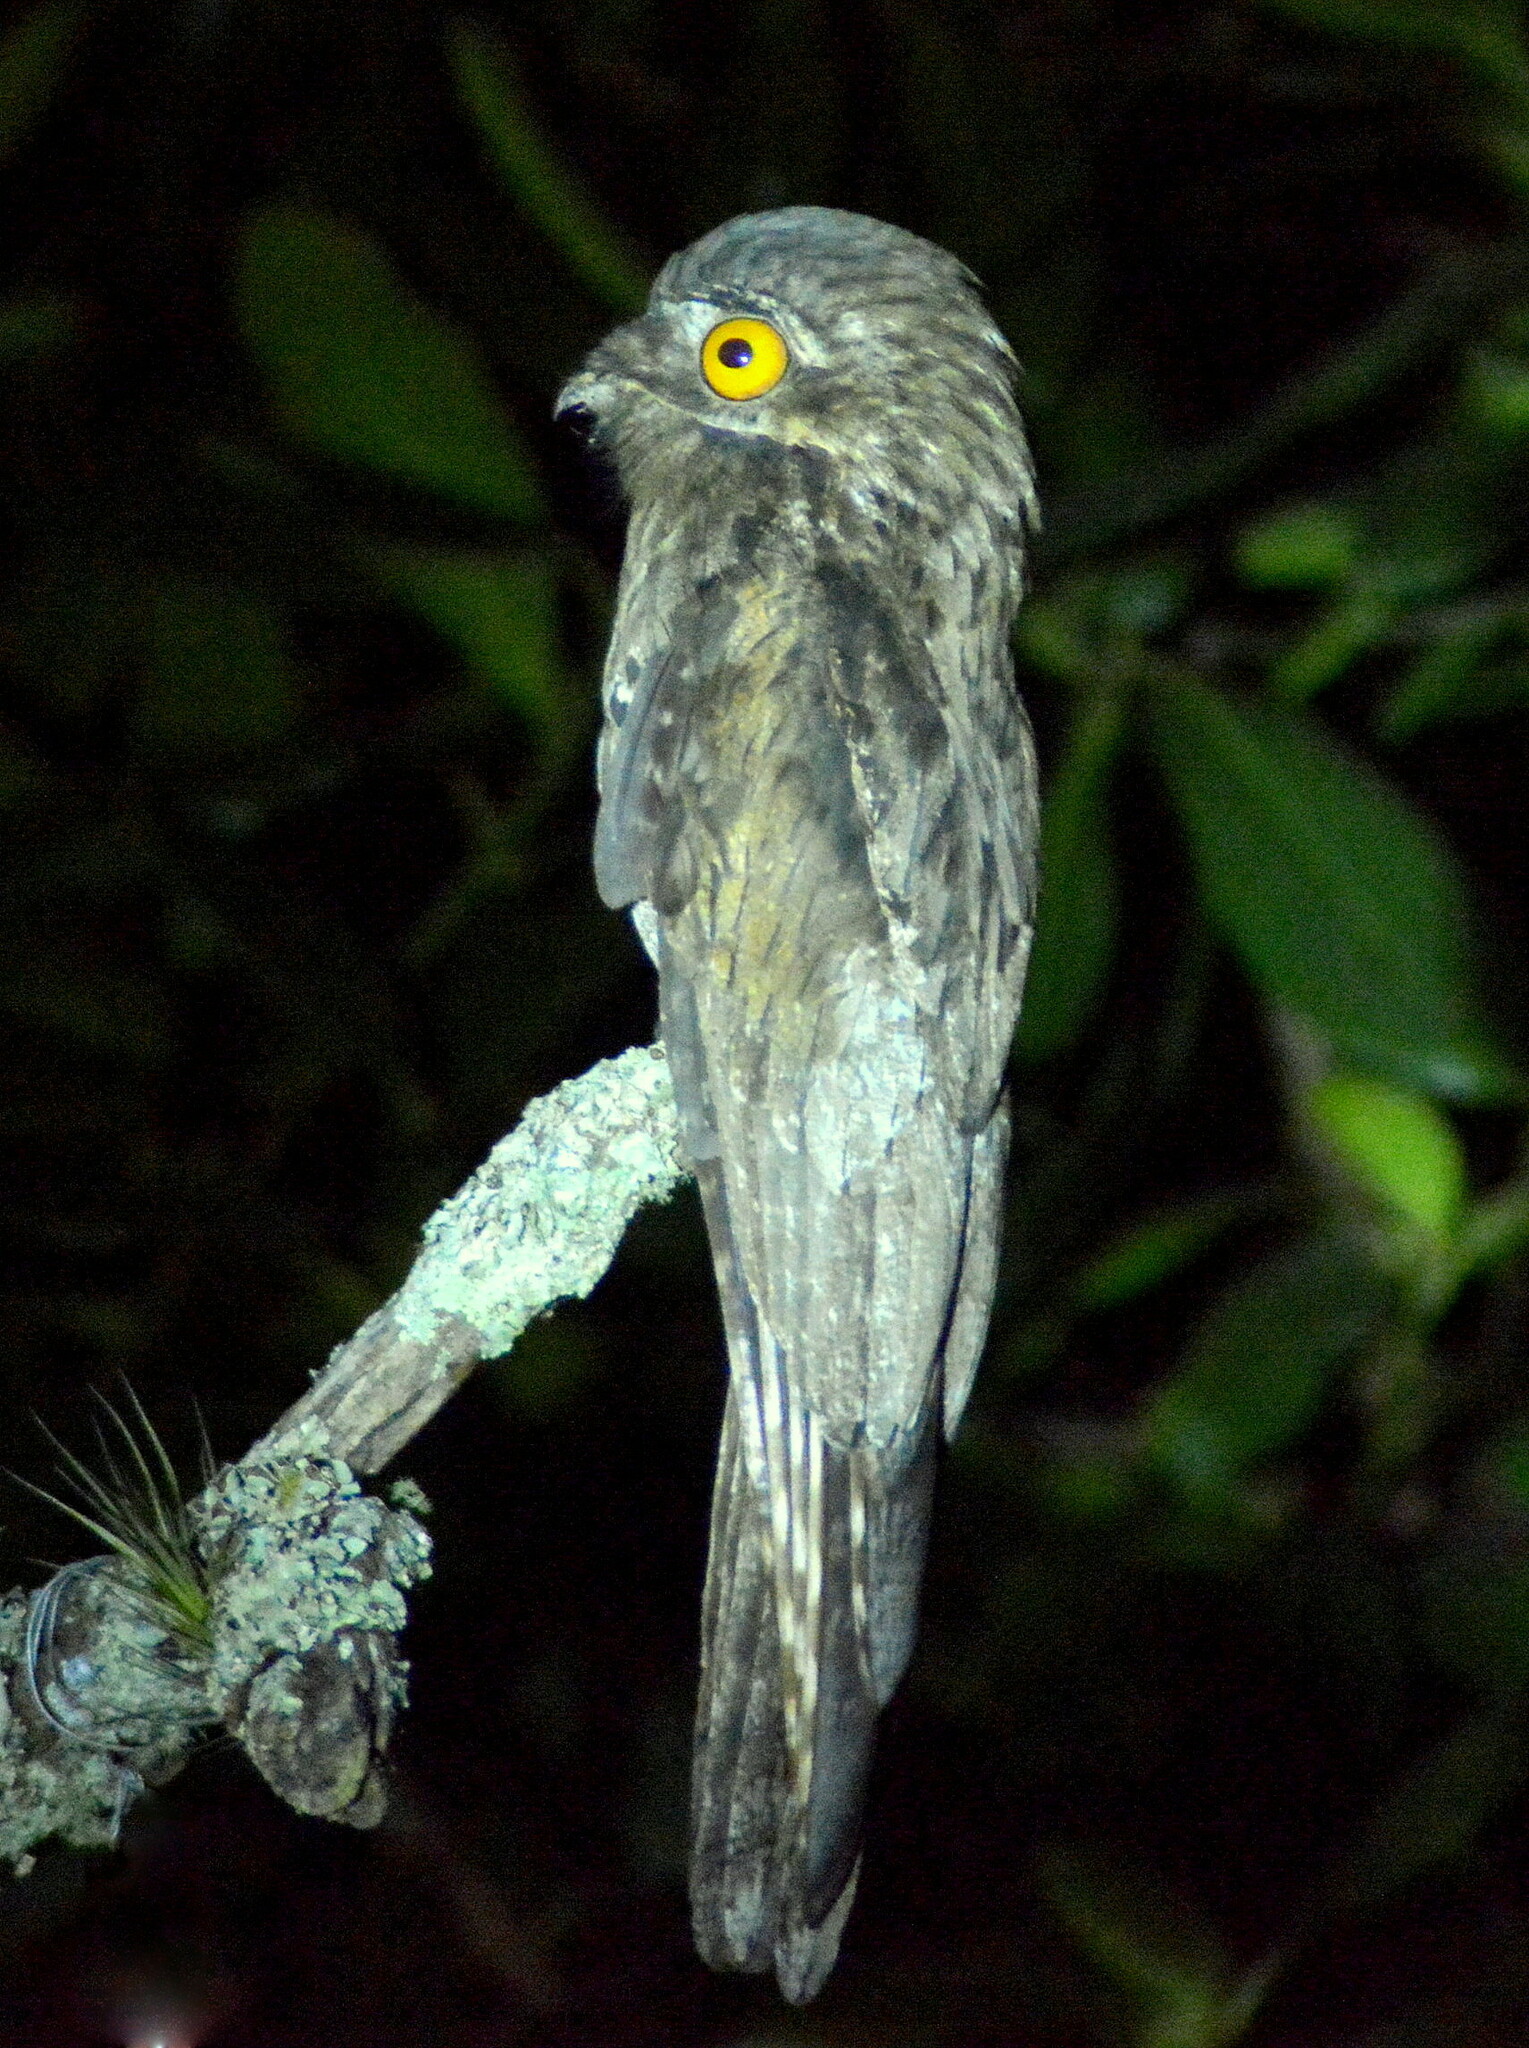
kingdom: Animalia
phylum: Chordata
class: Aves
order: Nyctibiiformes
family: Nyctibiidae
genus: Nyctibius
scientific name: Nyctibius griseus
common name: Common potoo
